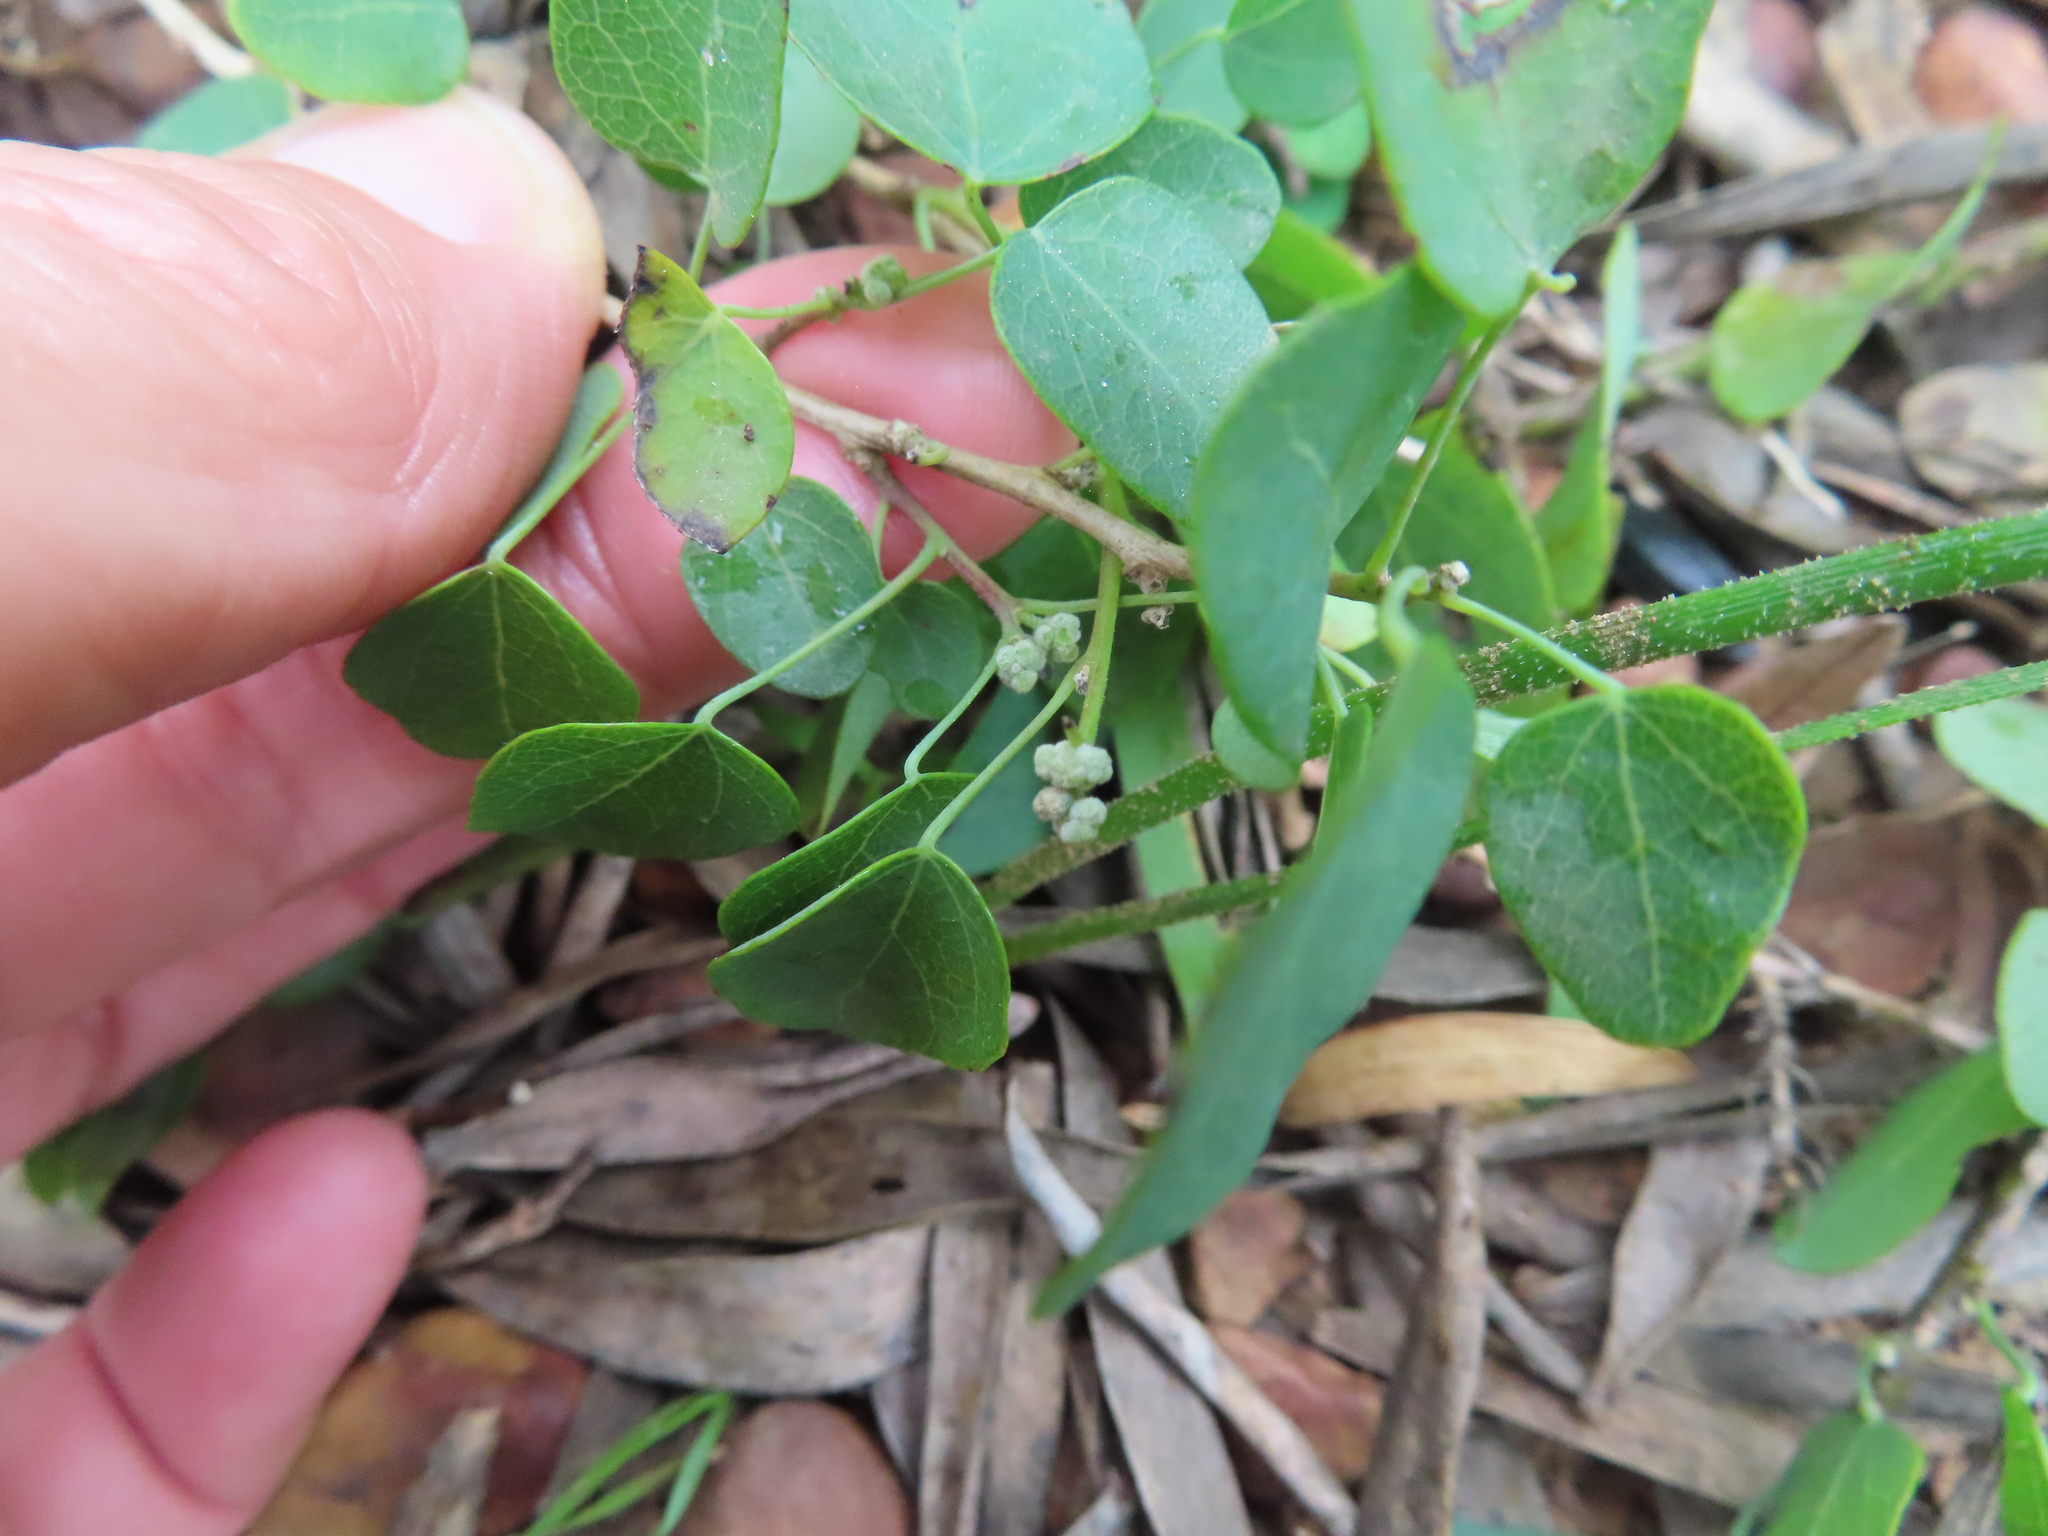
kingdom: Plantae
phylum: Tracheophyta
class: Magnoliopsida
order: Ranunculales
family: Menispermaceae
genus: Cissampelos
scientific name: Cissampelos capensis
